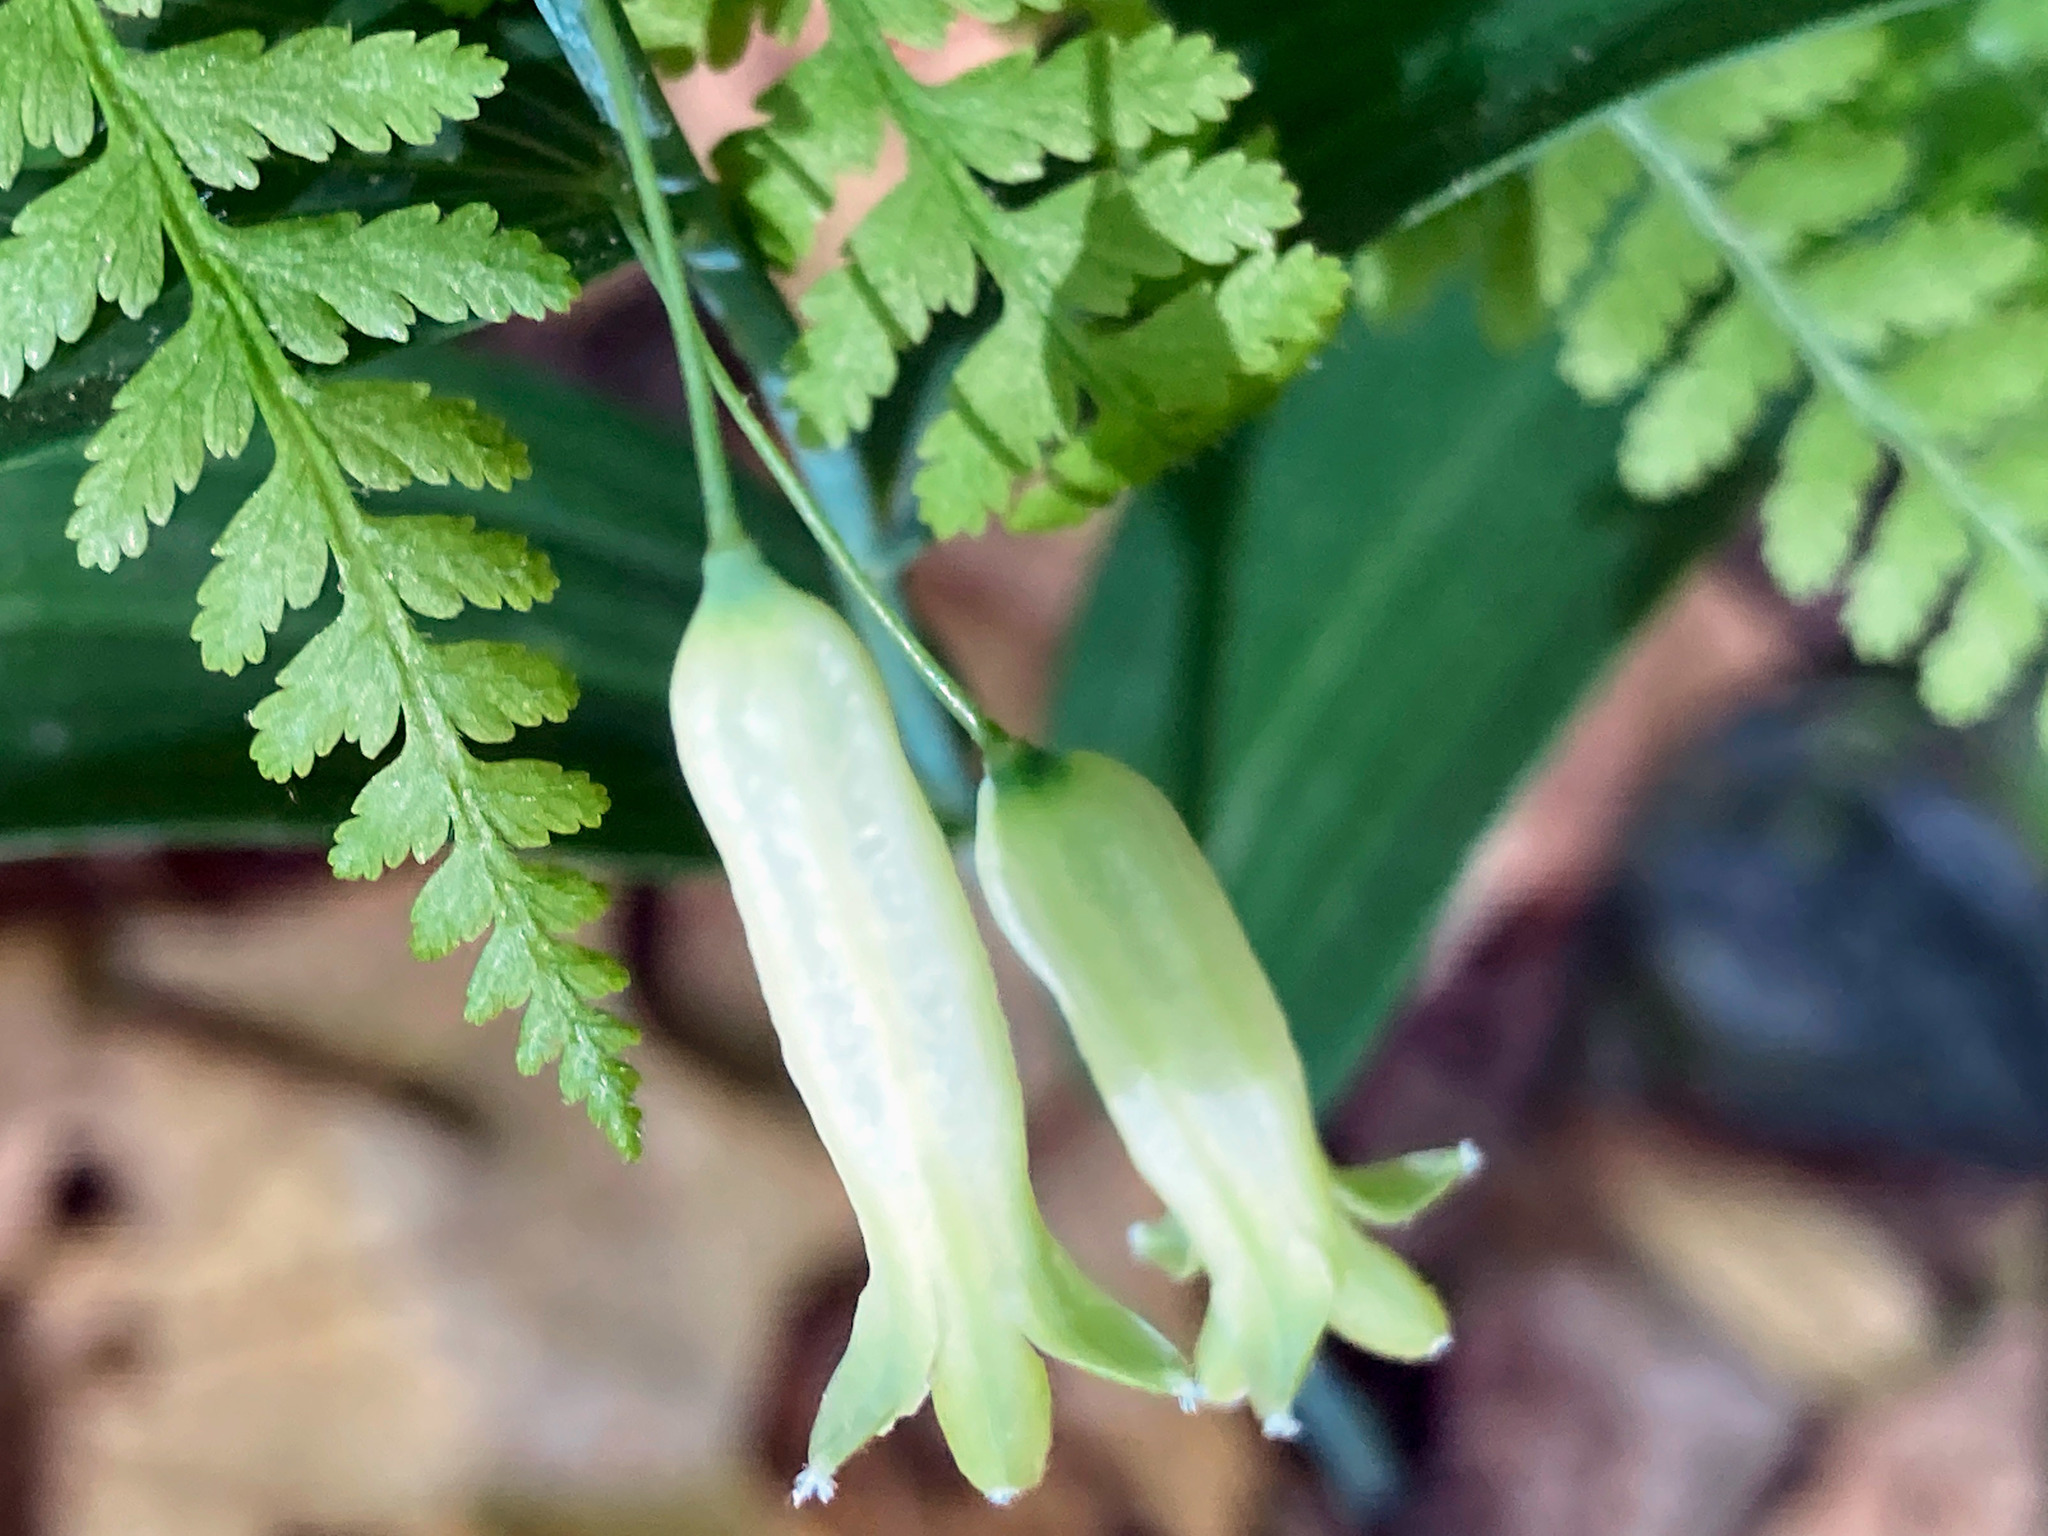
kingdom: Plantae
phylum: Tracheophyta
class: Liliopsida
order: Asparagales
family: Asparagaceae
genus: Polygonatum
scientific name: Polygonatum biflorum
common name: American solomon's-seal
